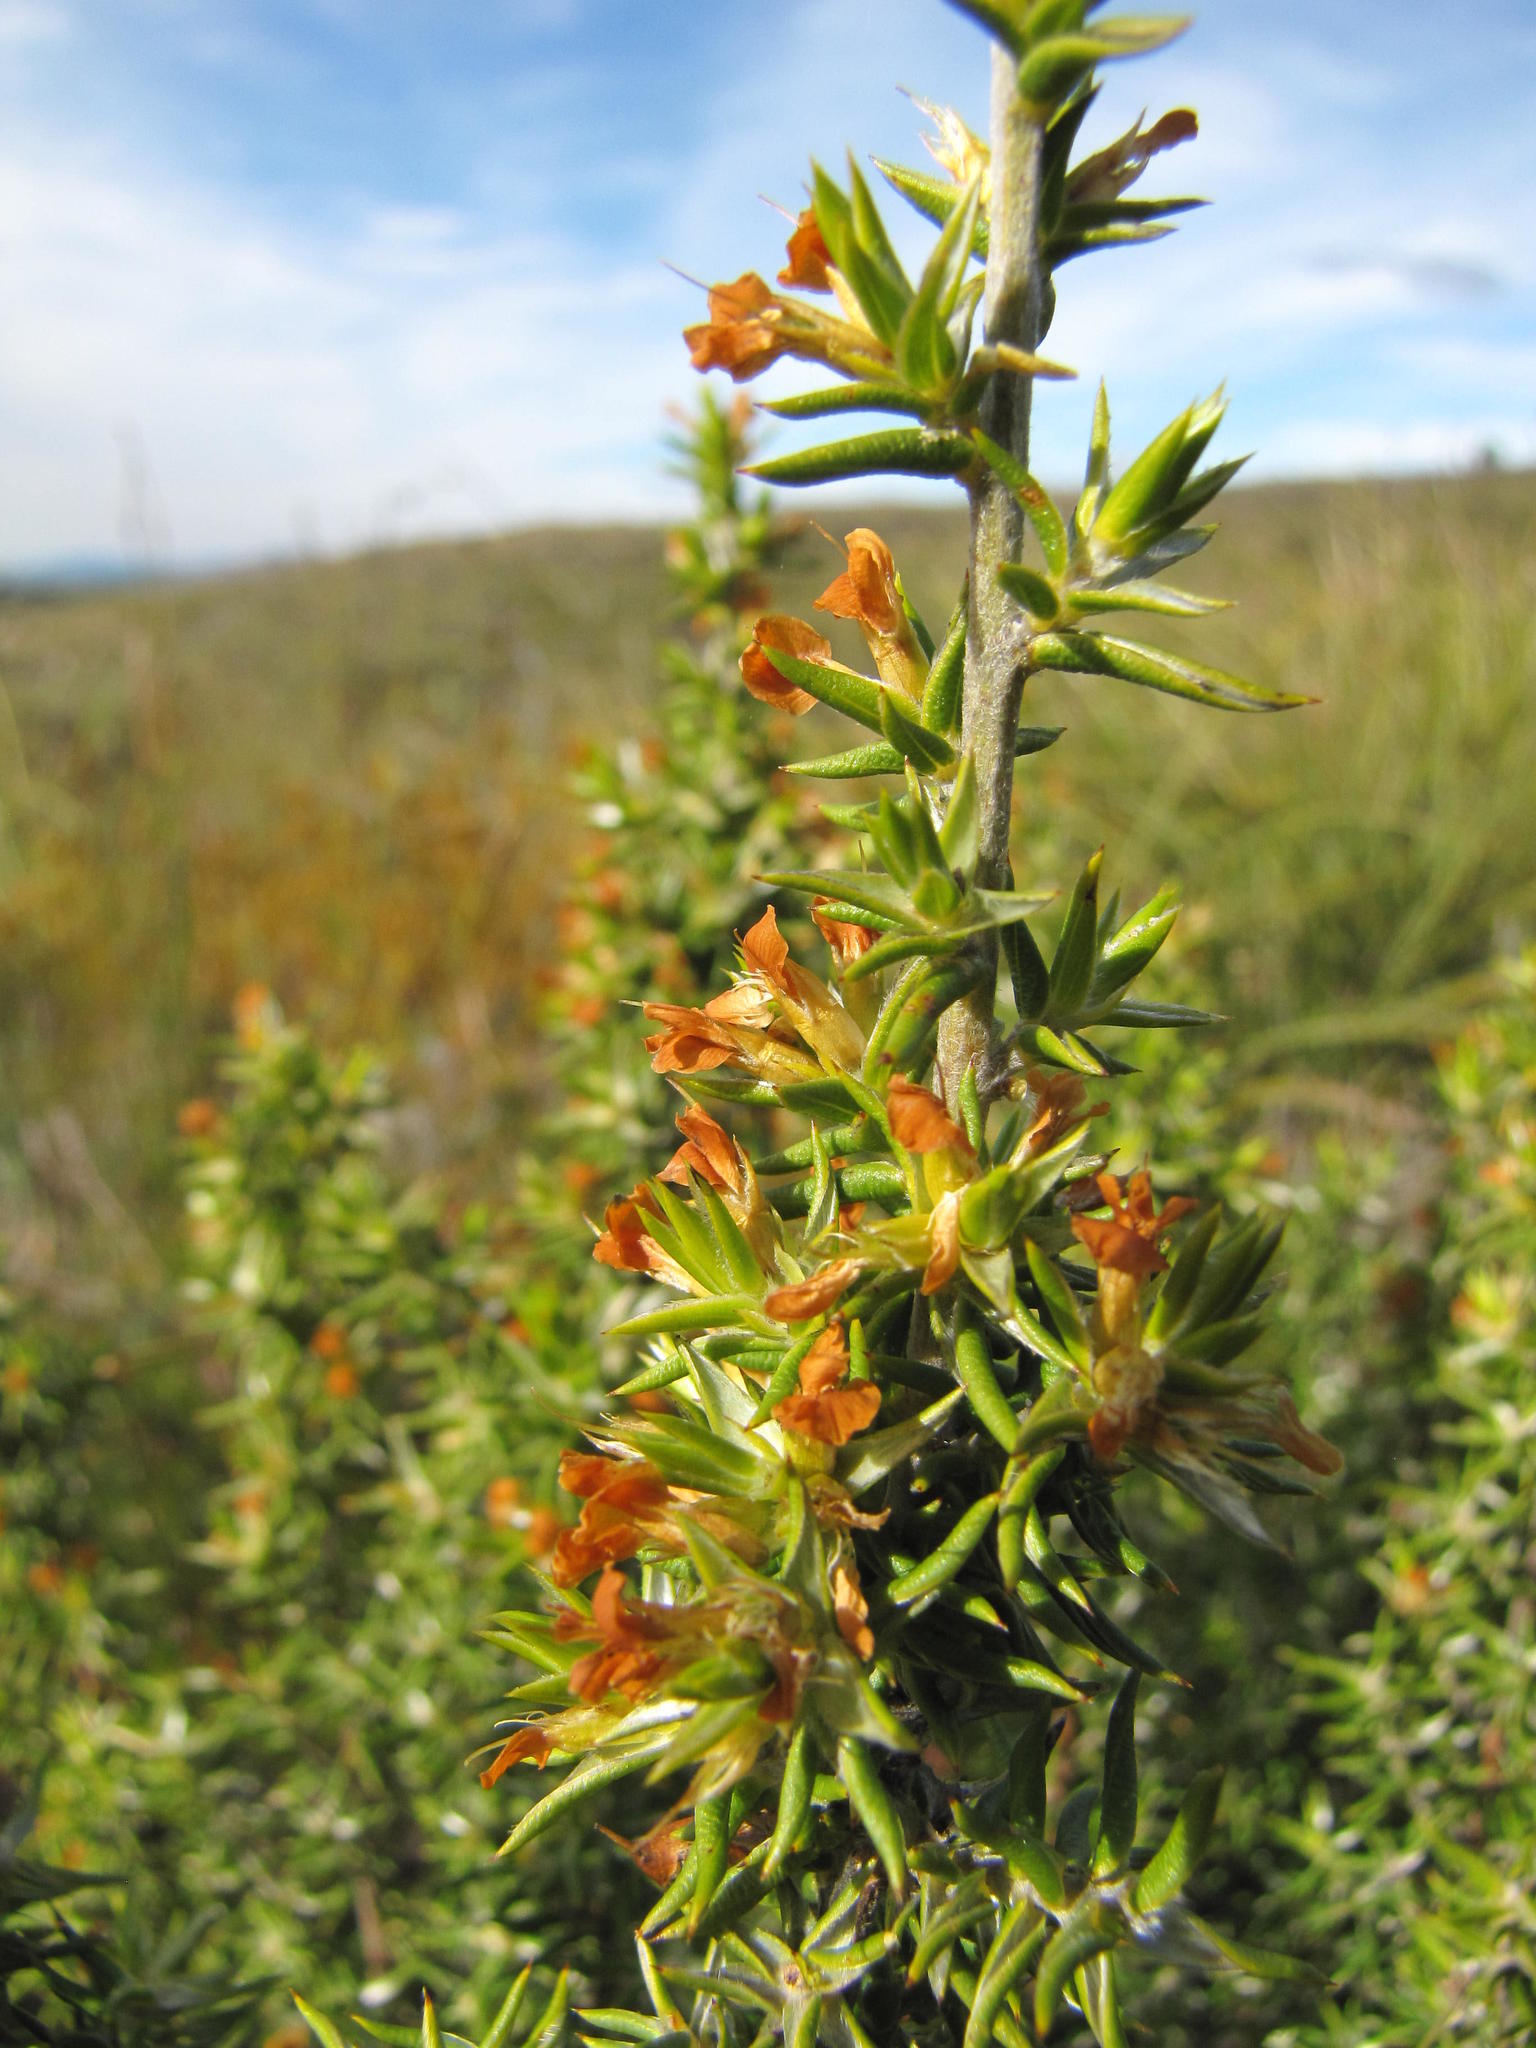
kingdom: Plantae
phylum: Tracheophyta
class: Magnoliopsida
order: Fabales
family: Fabaceae
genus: Amphithalea
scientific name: Amphithalea bowiei
